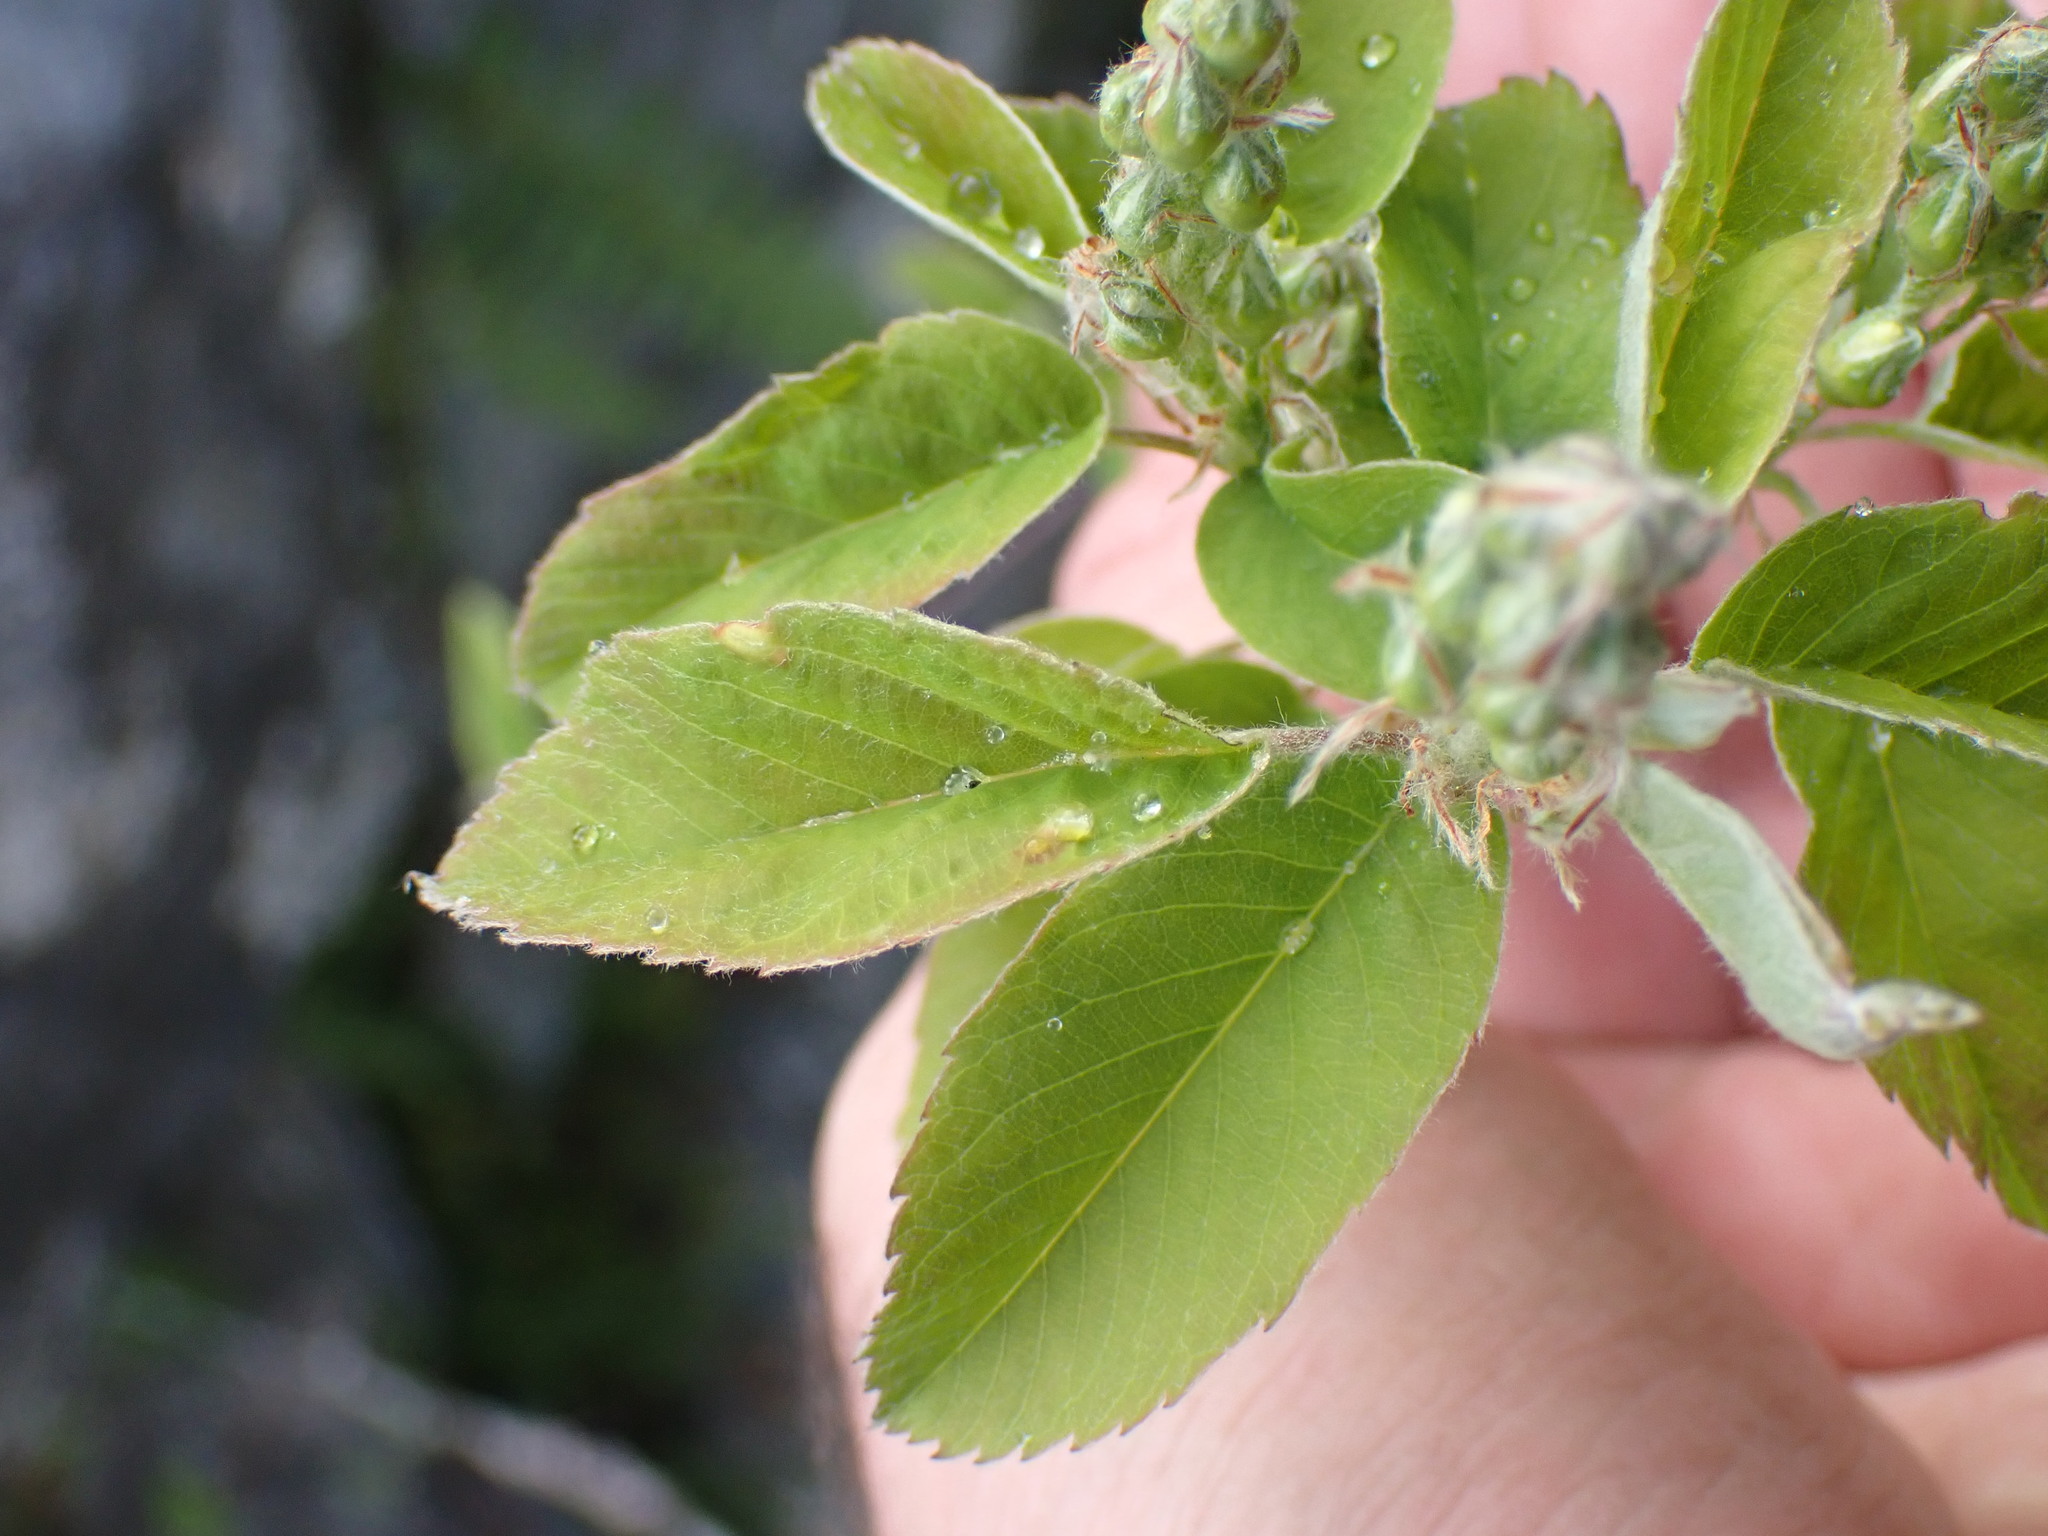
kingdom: Plantae
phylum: Tracheophyta
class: Magnoliopsida
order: Rosales
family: Rosaceae
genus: Amelanchier
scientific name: Amelanchier alnifolia
